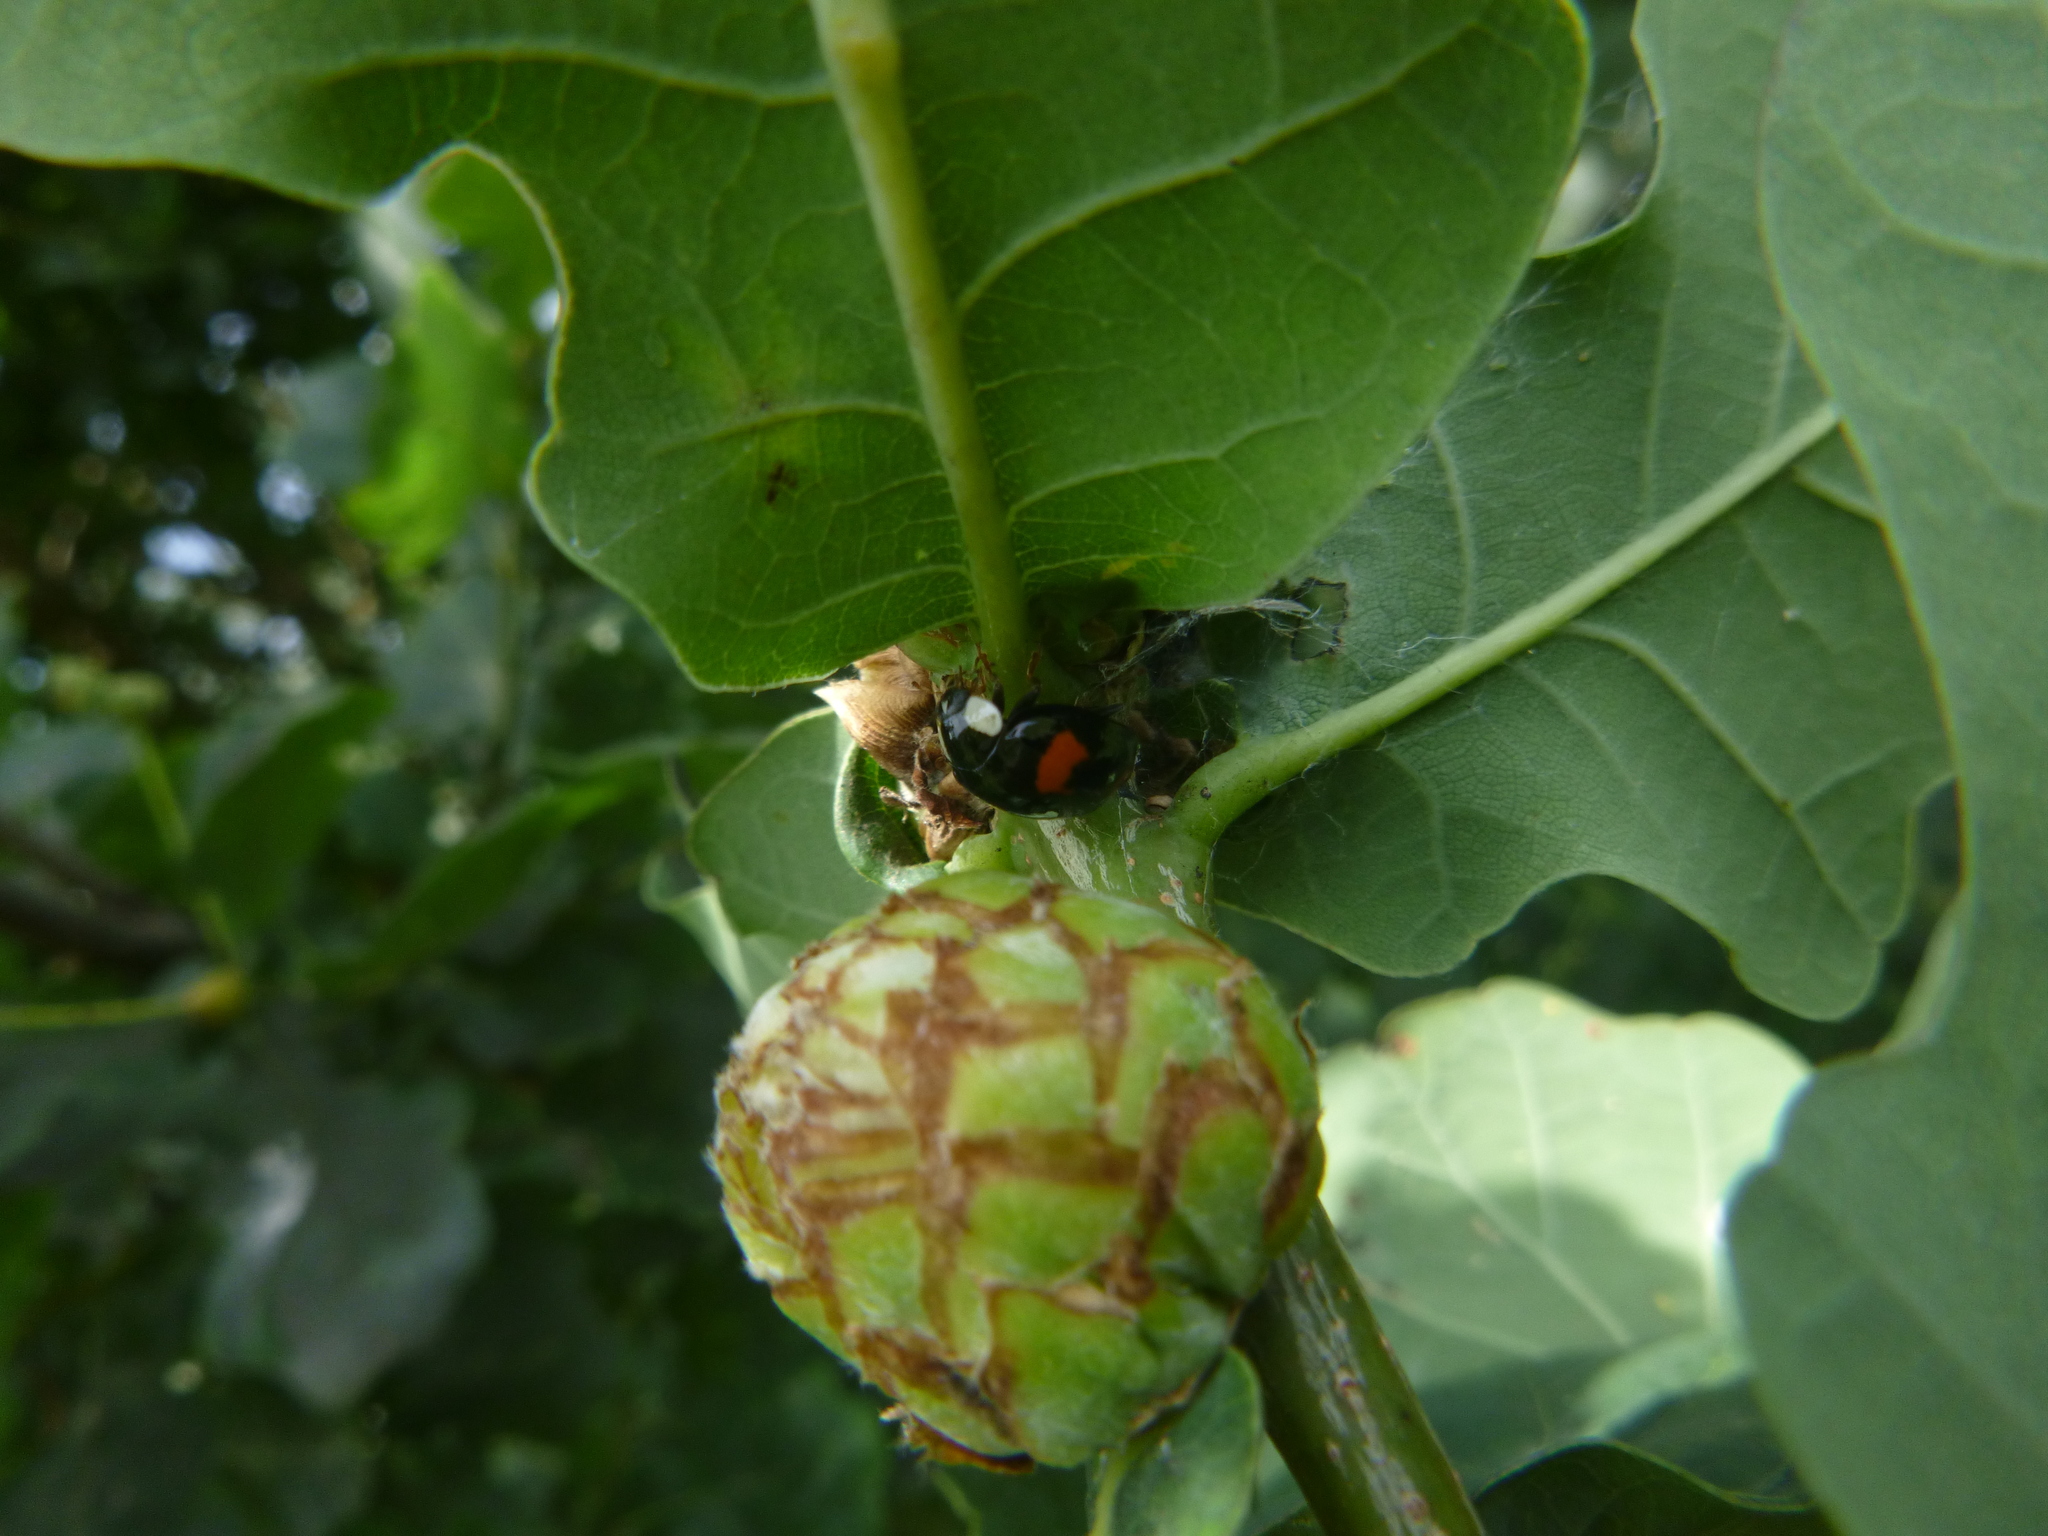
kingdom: Animalia
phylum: Arthropoda
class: Insecta
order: Coleoptera
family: Coccinellidae
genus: Harmonia
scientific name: Harmonia axyridis
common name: Harlequin ladybird
